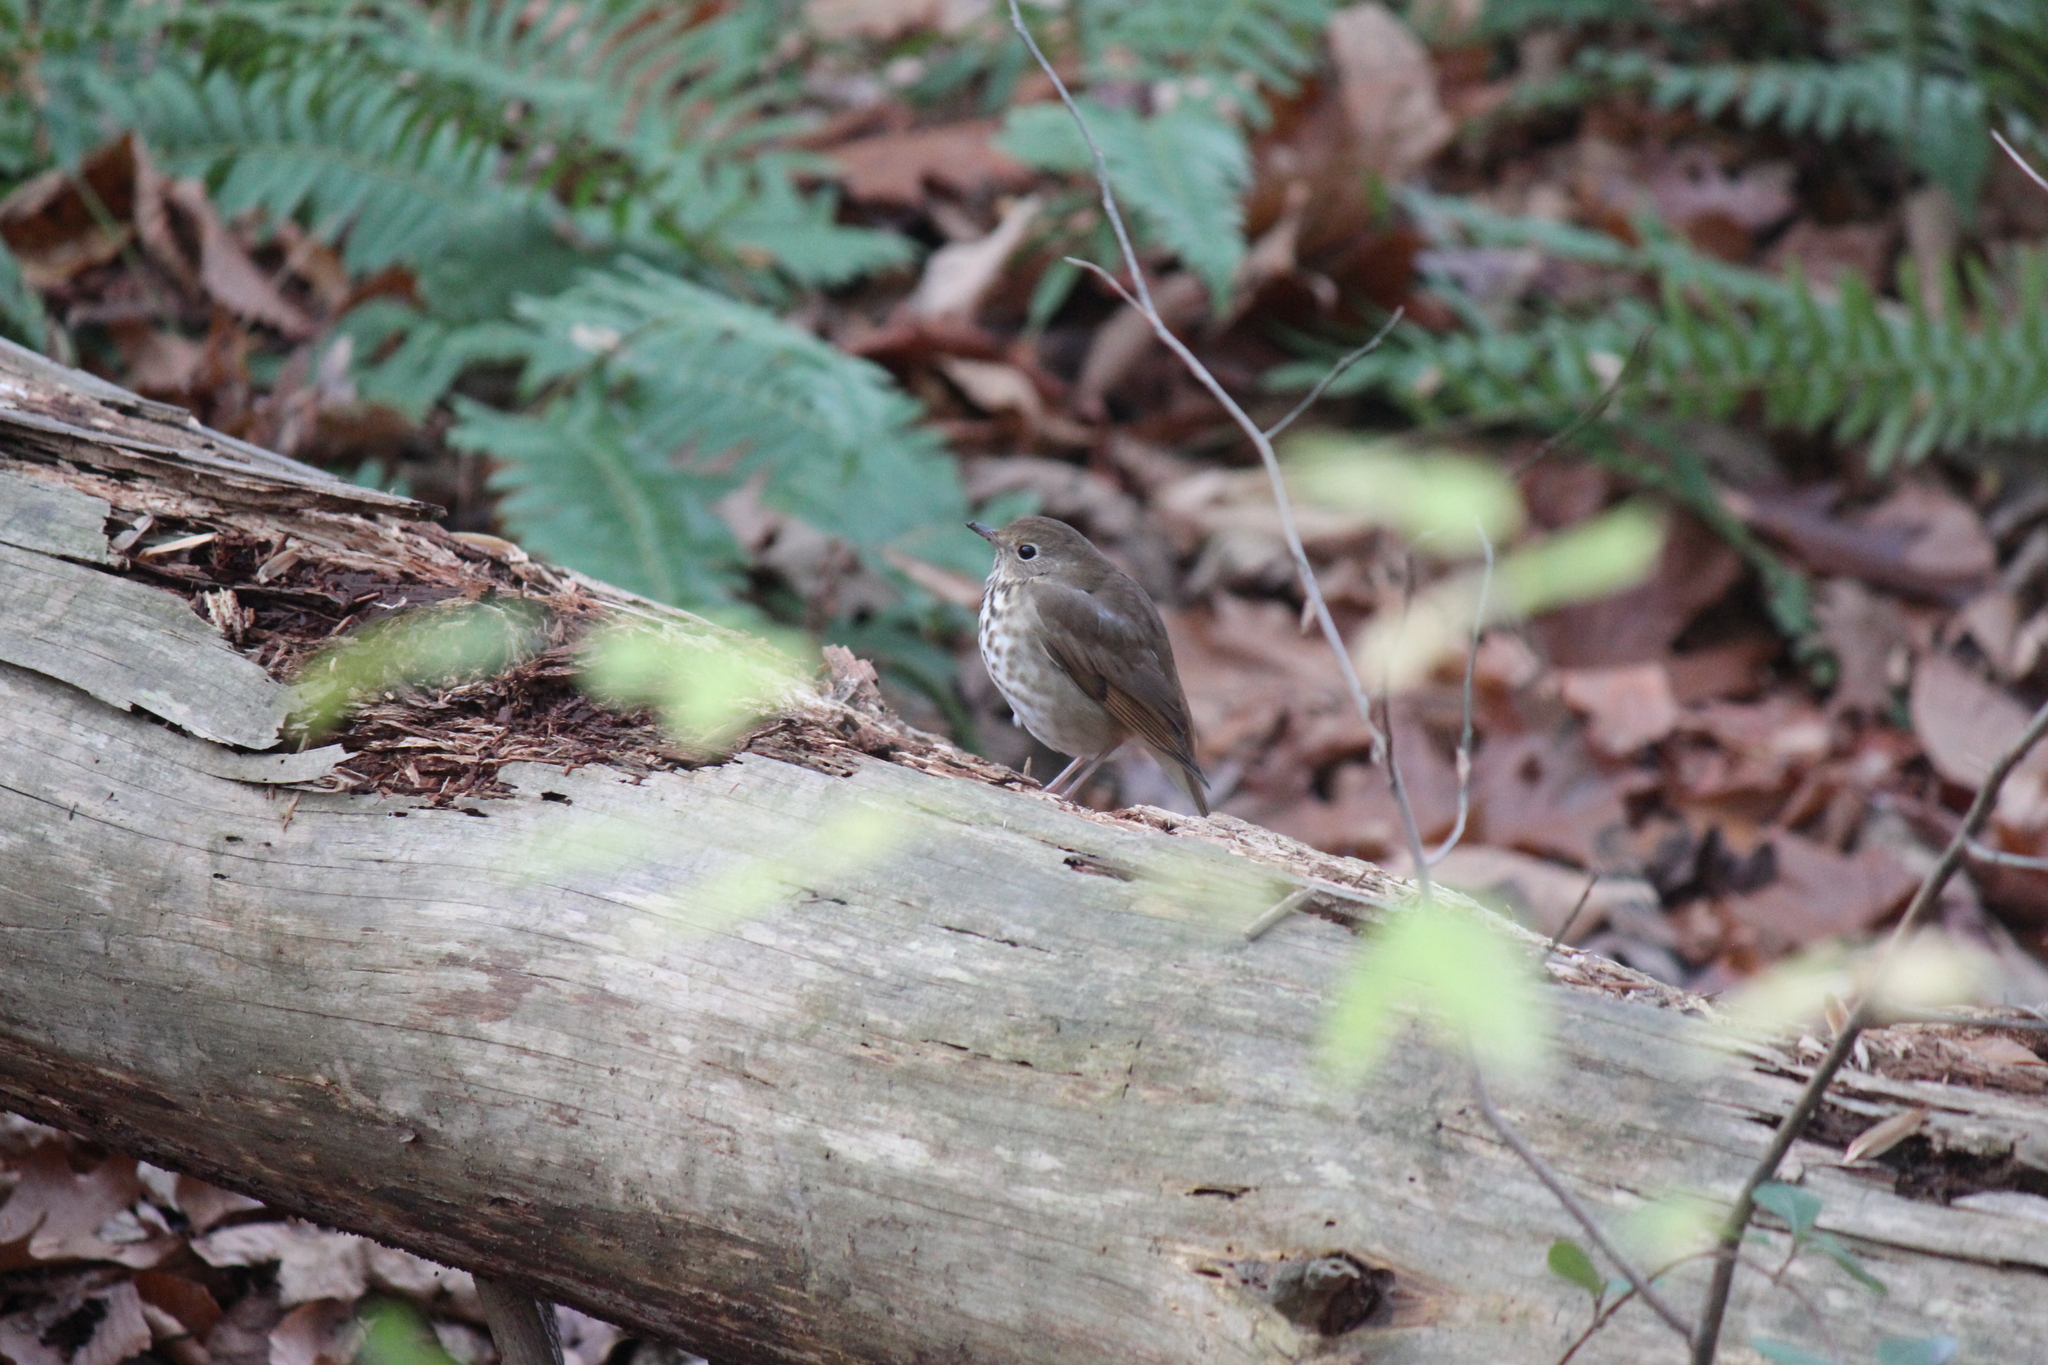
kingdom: Animalia
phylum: Chordata
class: Aves
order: Passeriformes
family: Turdidae
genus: Catharus
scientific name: Catharus guttatus
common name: Hermit thrush
